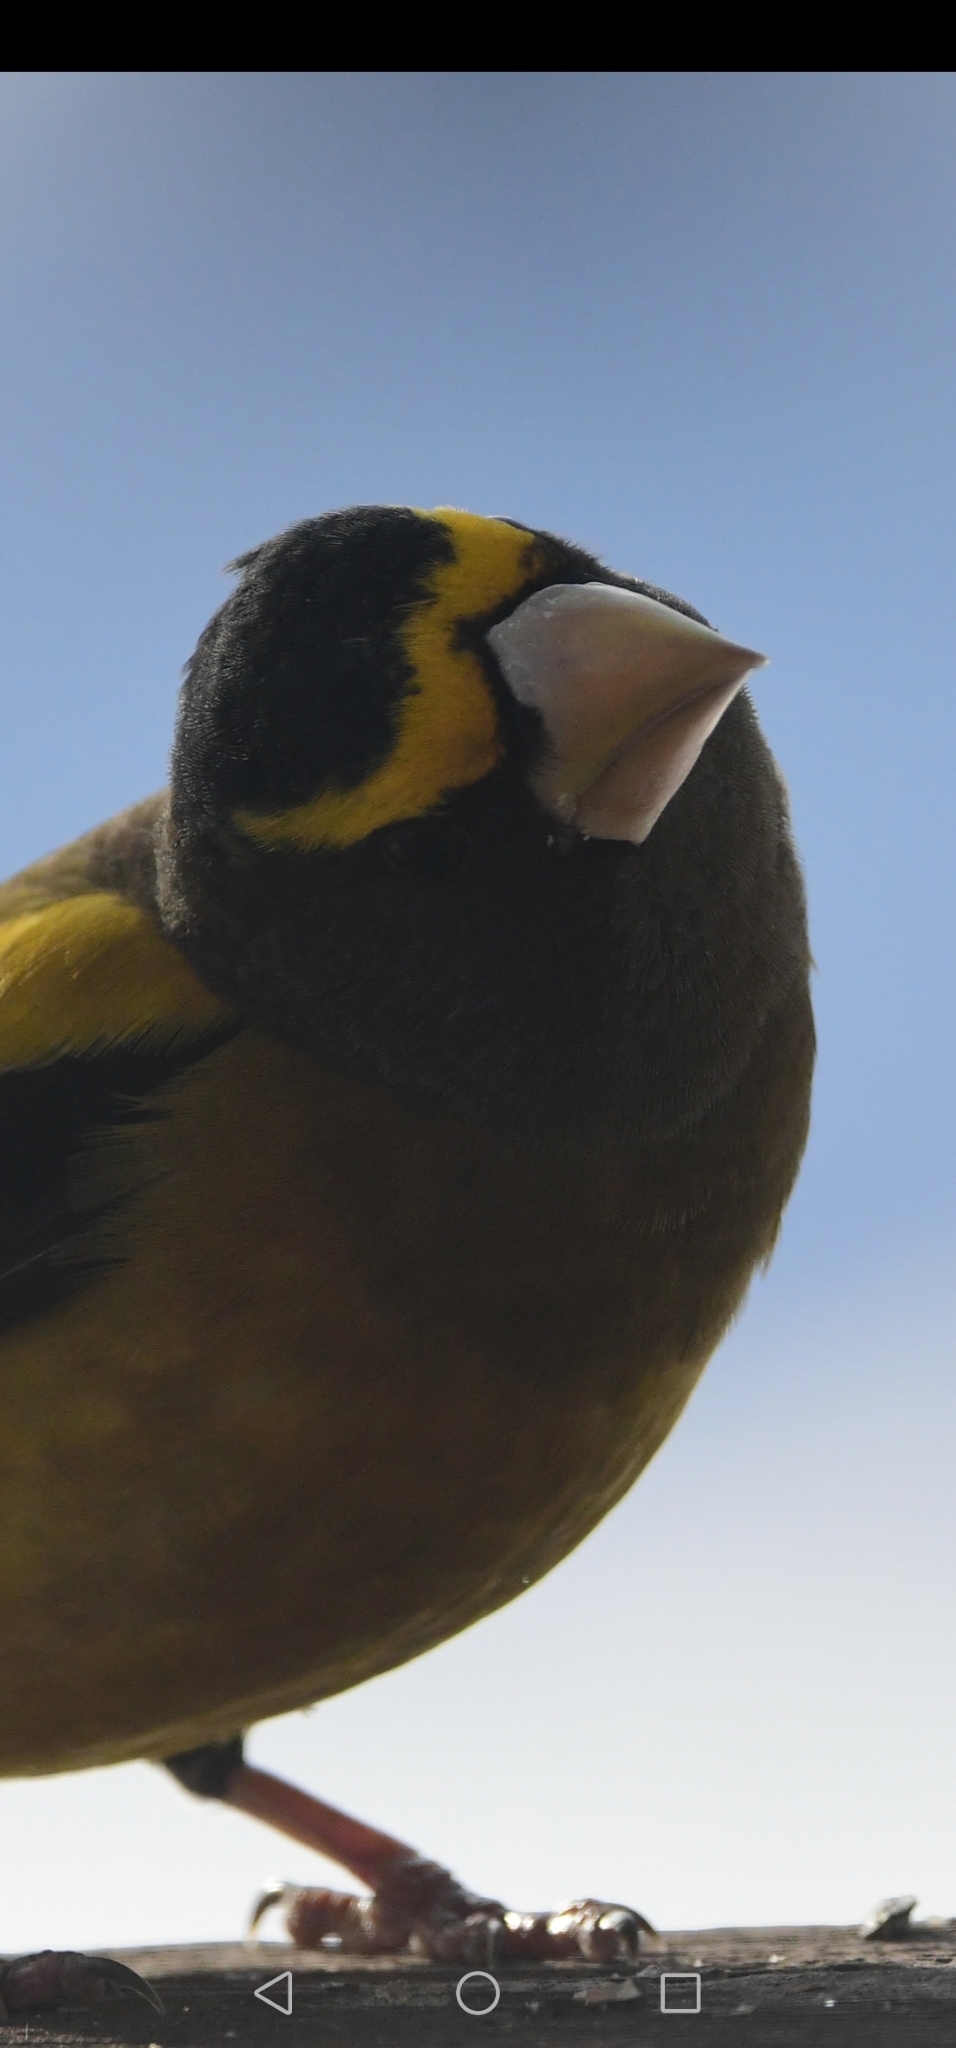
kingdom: Animalia
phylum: Chordata
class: Aves
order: Passeriformes
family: Fringillidae
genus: Hesperiphona
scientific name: Hesperiphona vespertina
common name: Evening grosbeak
